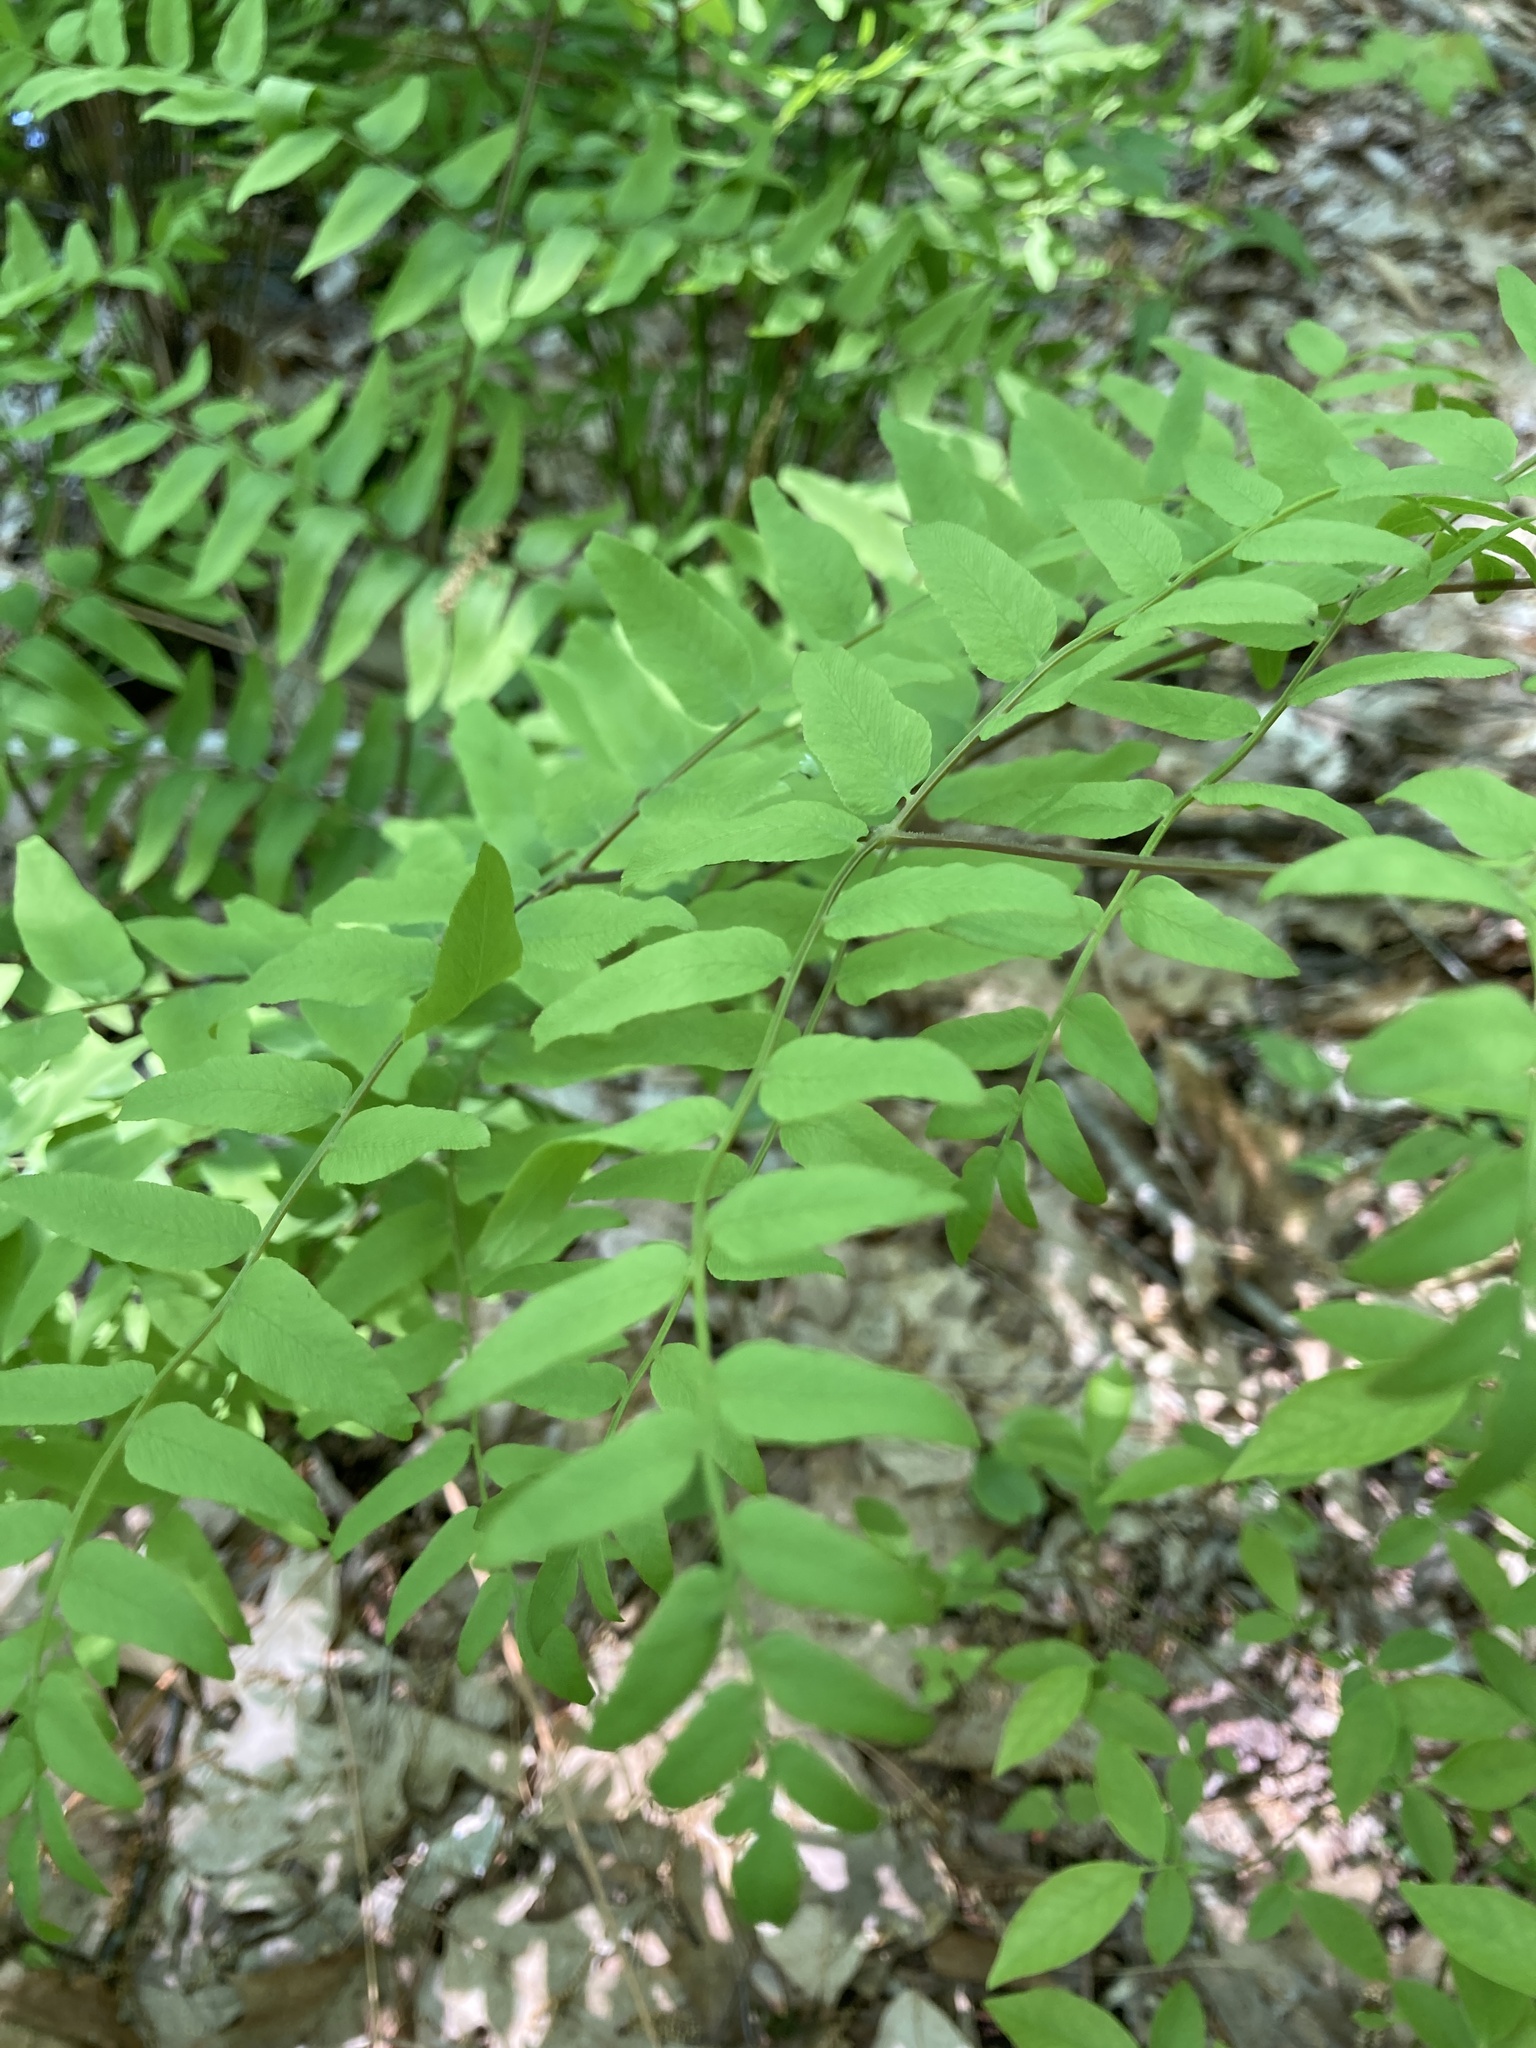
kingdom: Plantae
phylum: Tracheophyta
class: Polypodiopsida
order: Osmundales
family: Osmundaceae
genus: Osmunda
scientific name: Osmunda spectabilis
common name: American royal fern
